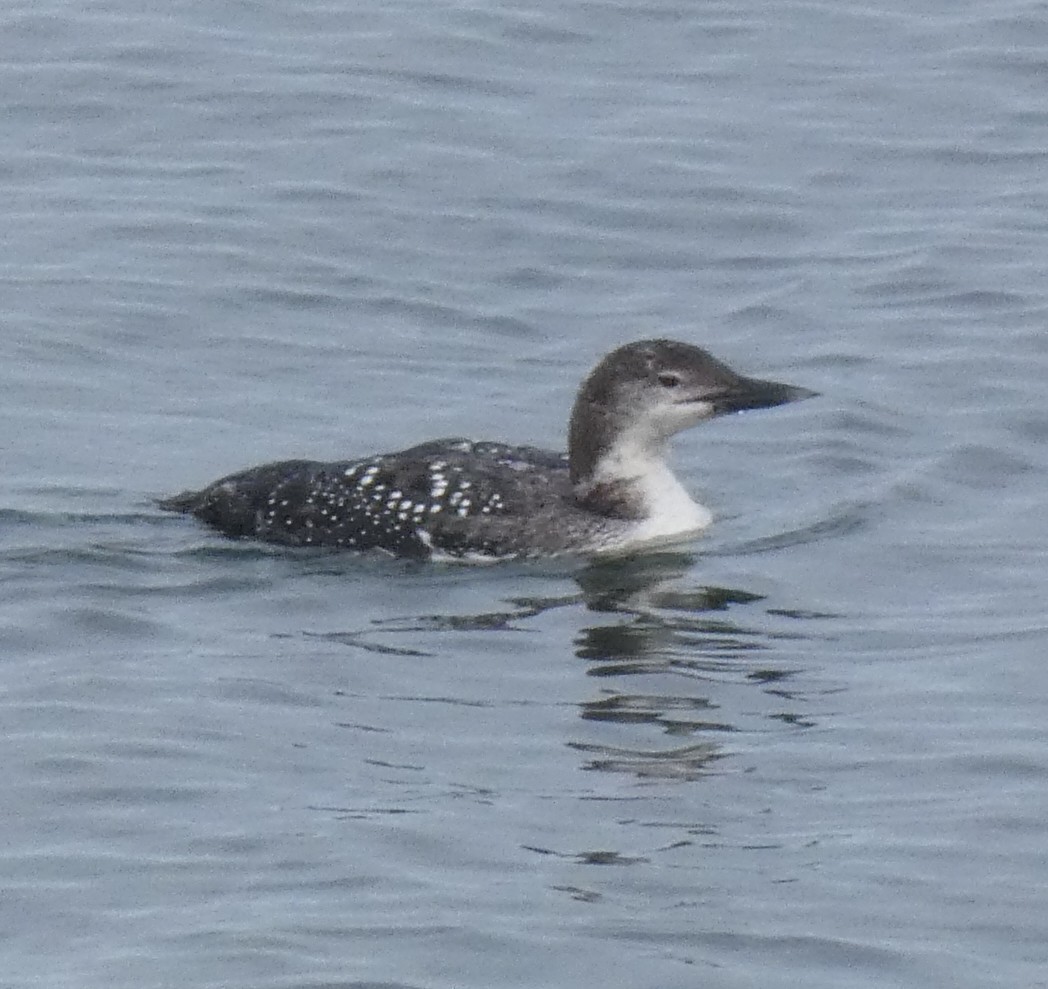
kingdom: Animalia
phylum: Chordata
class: Aves
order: Gaviiformes
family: Gaviidae
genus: Gavia
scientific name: Gavia immer
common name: Common loon
